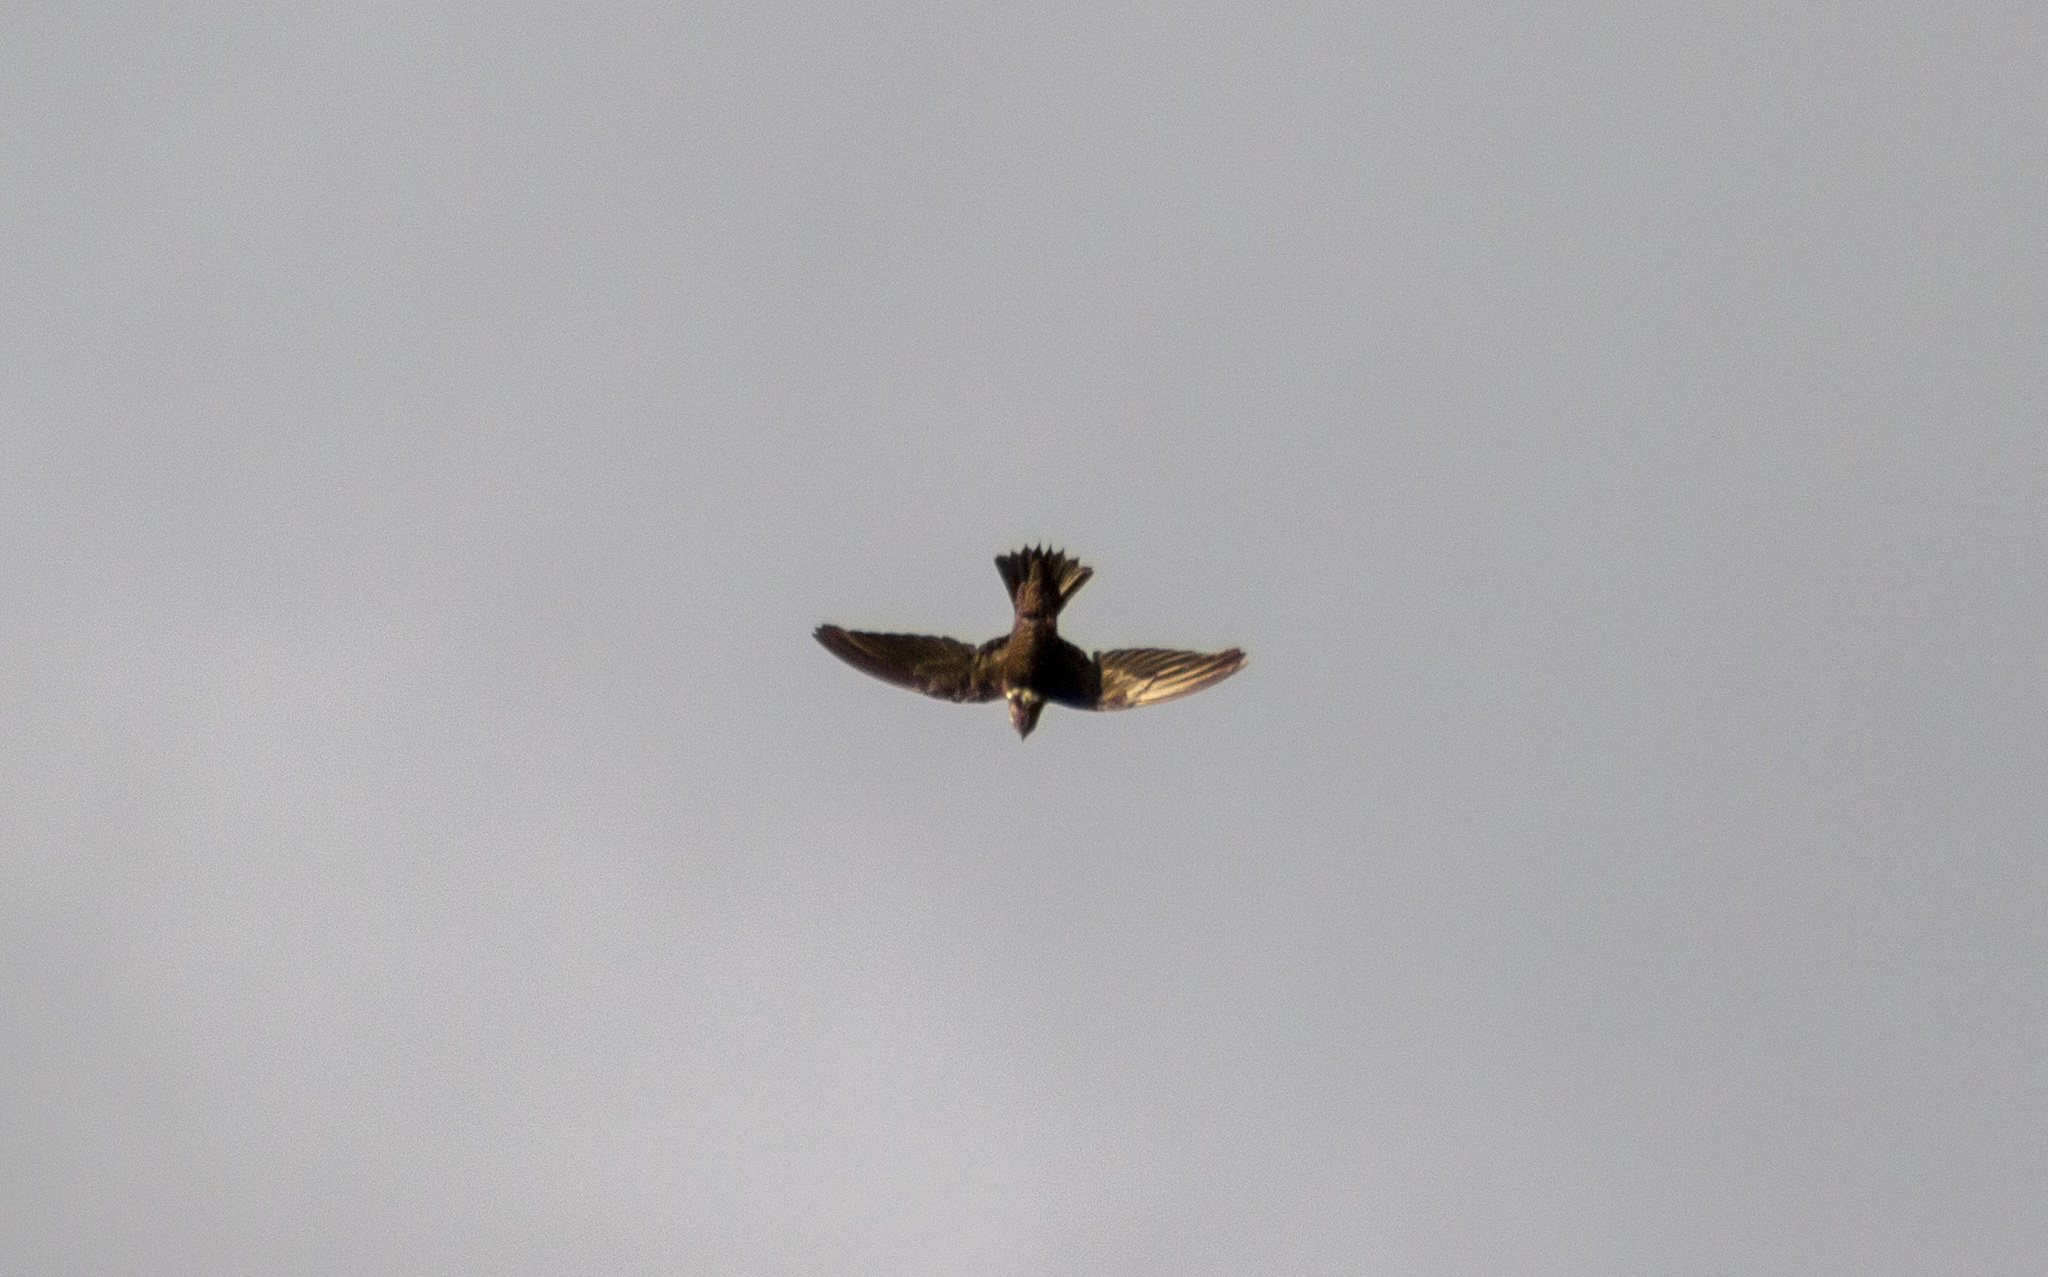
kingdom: Animalia
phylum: Chordata
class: Aves
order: Apodiformes
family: Apodidae
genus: Streptoprocne
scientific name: Streptoprocne biscutata
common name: Biscutate swift
